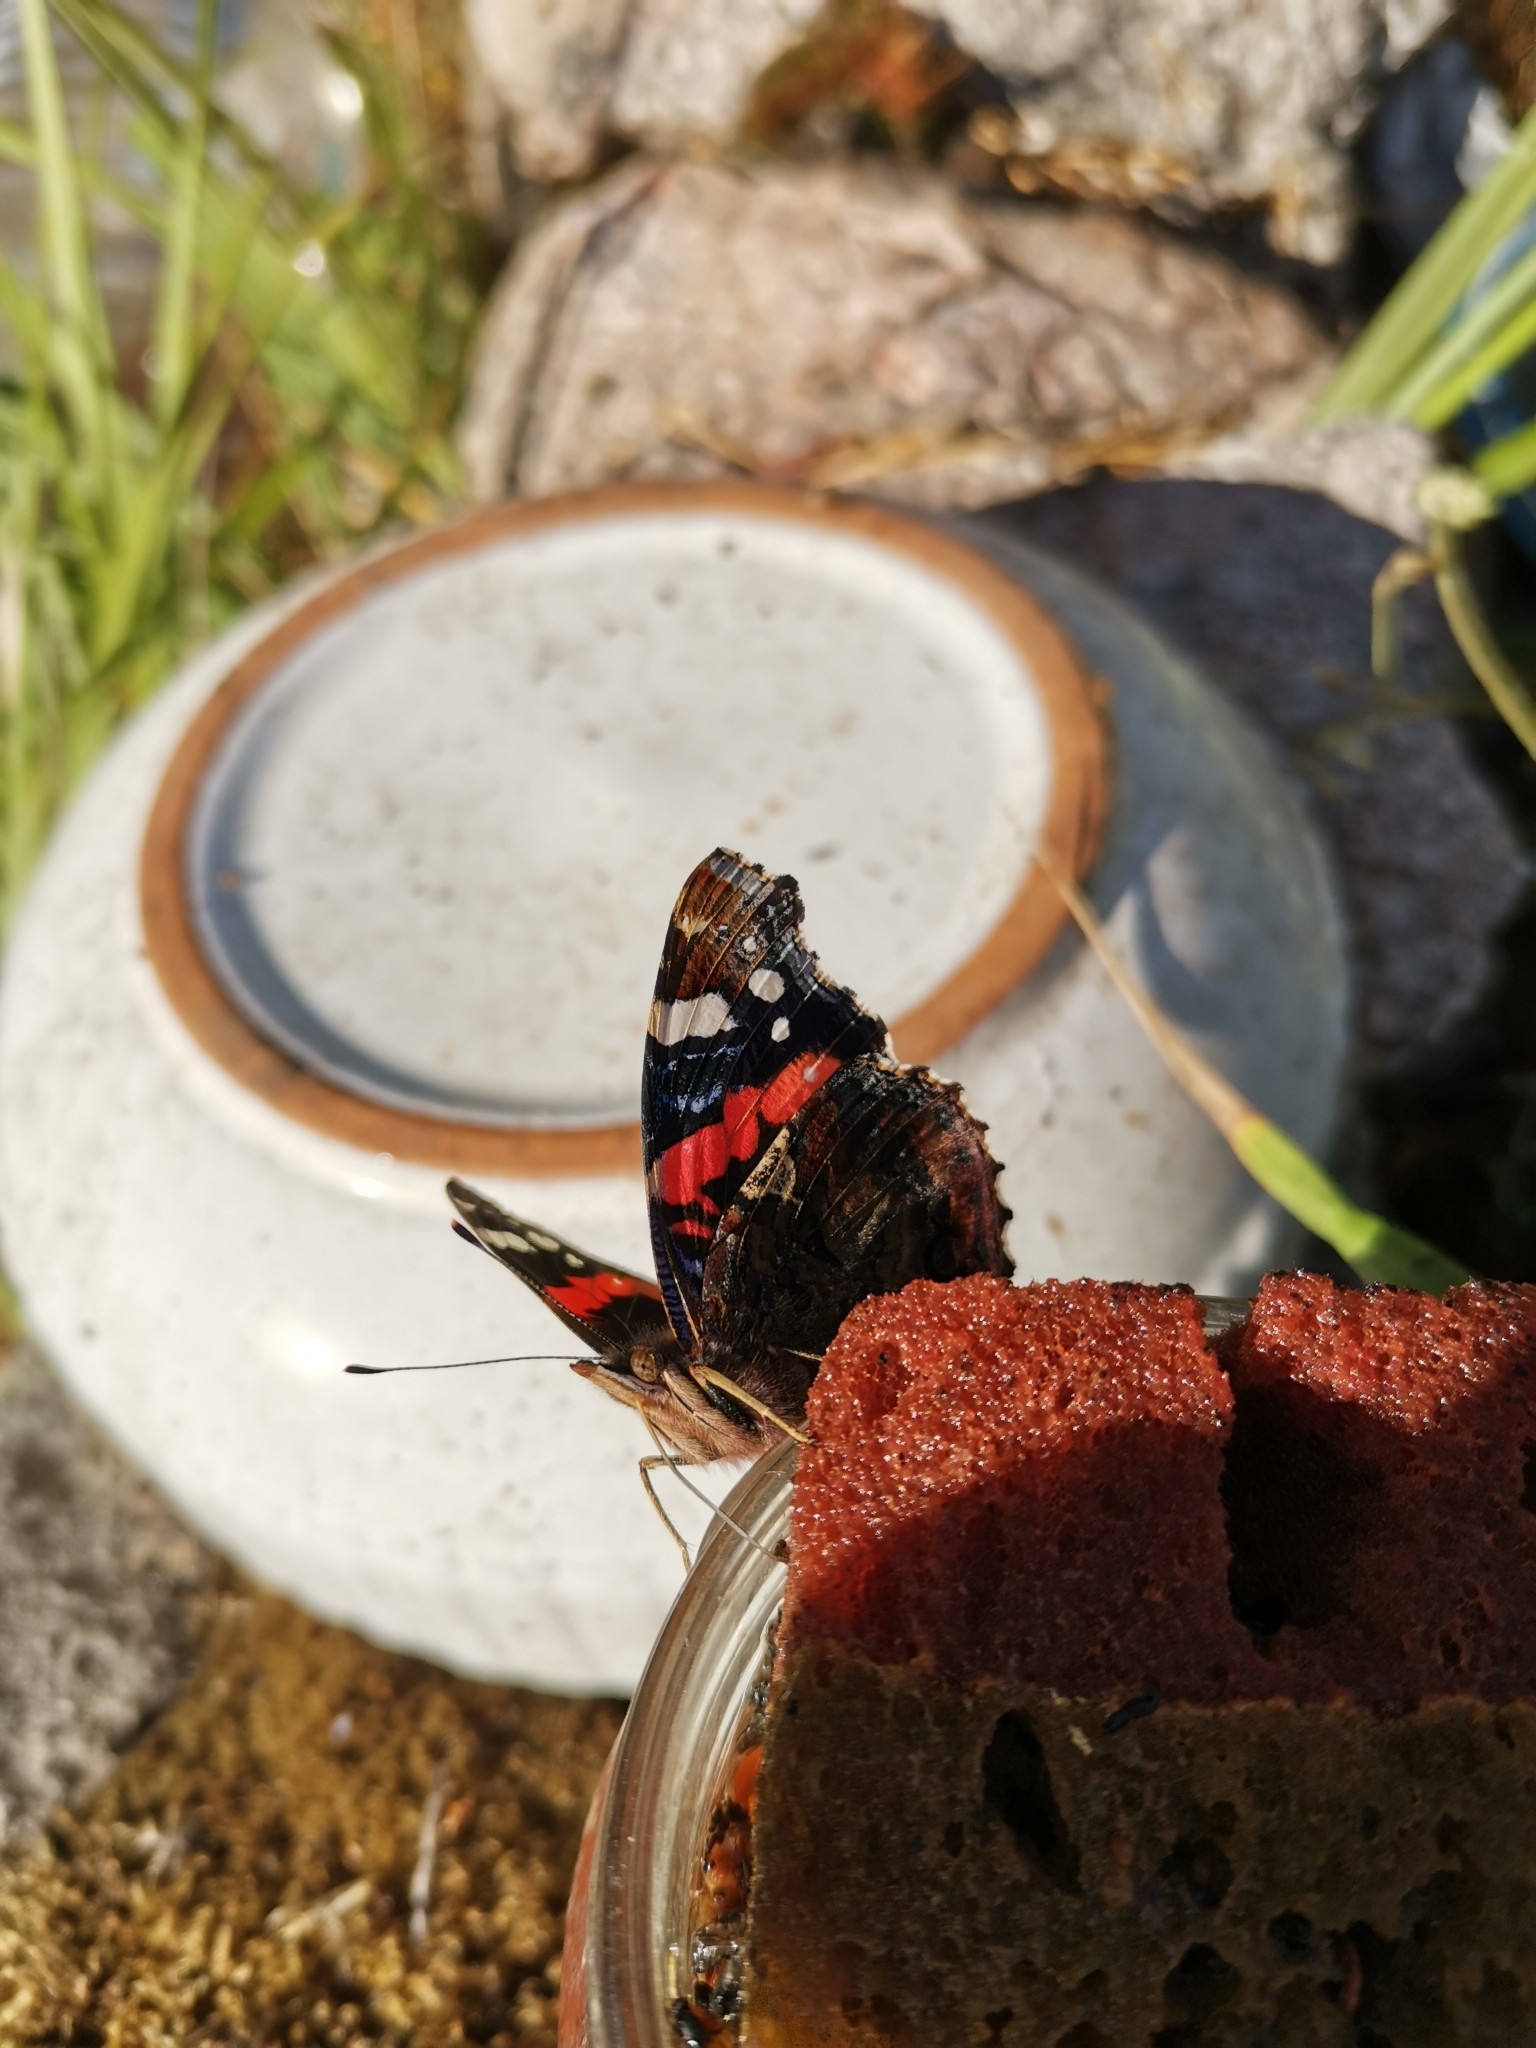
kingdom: Animalia
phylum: Arthropoda
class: Insecta
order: Lepidoptera
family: Nymphalidae
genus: Vanessa
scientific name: Vanessa atalanta
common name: Red admiral
